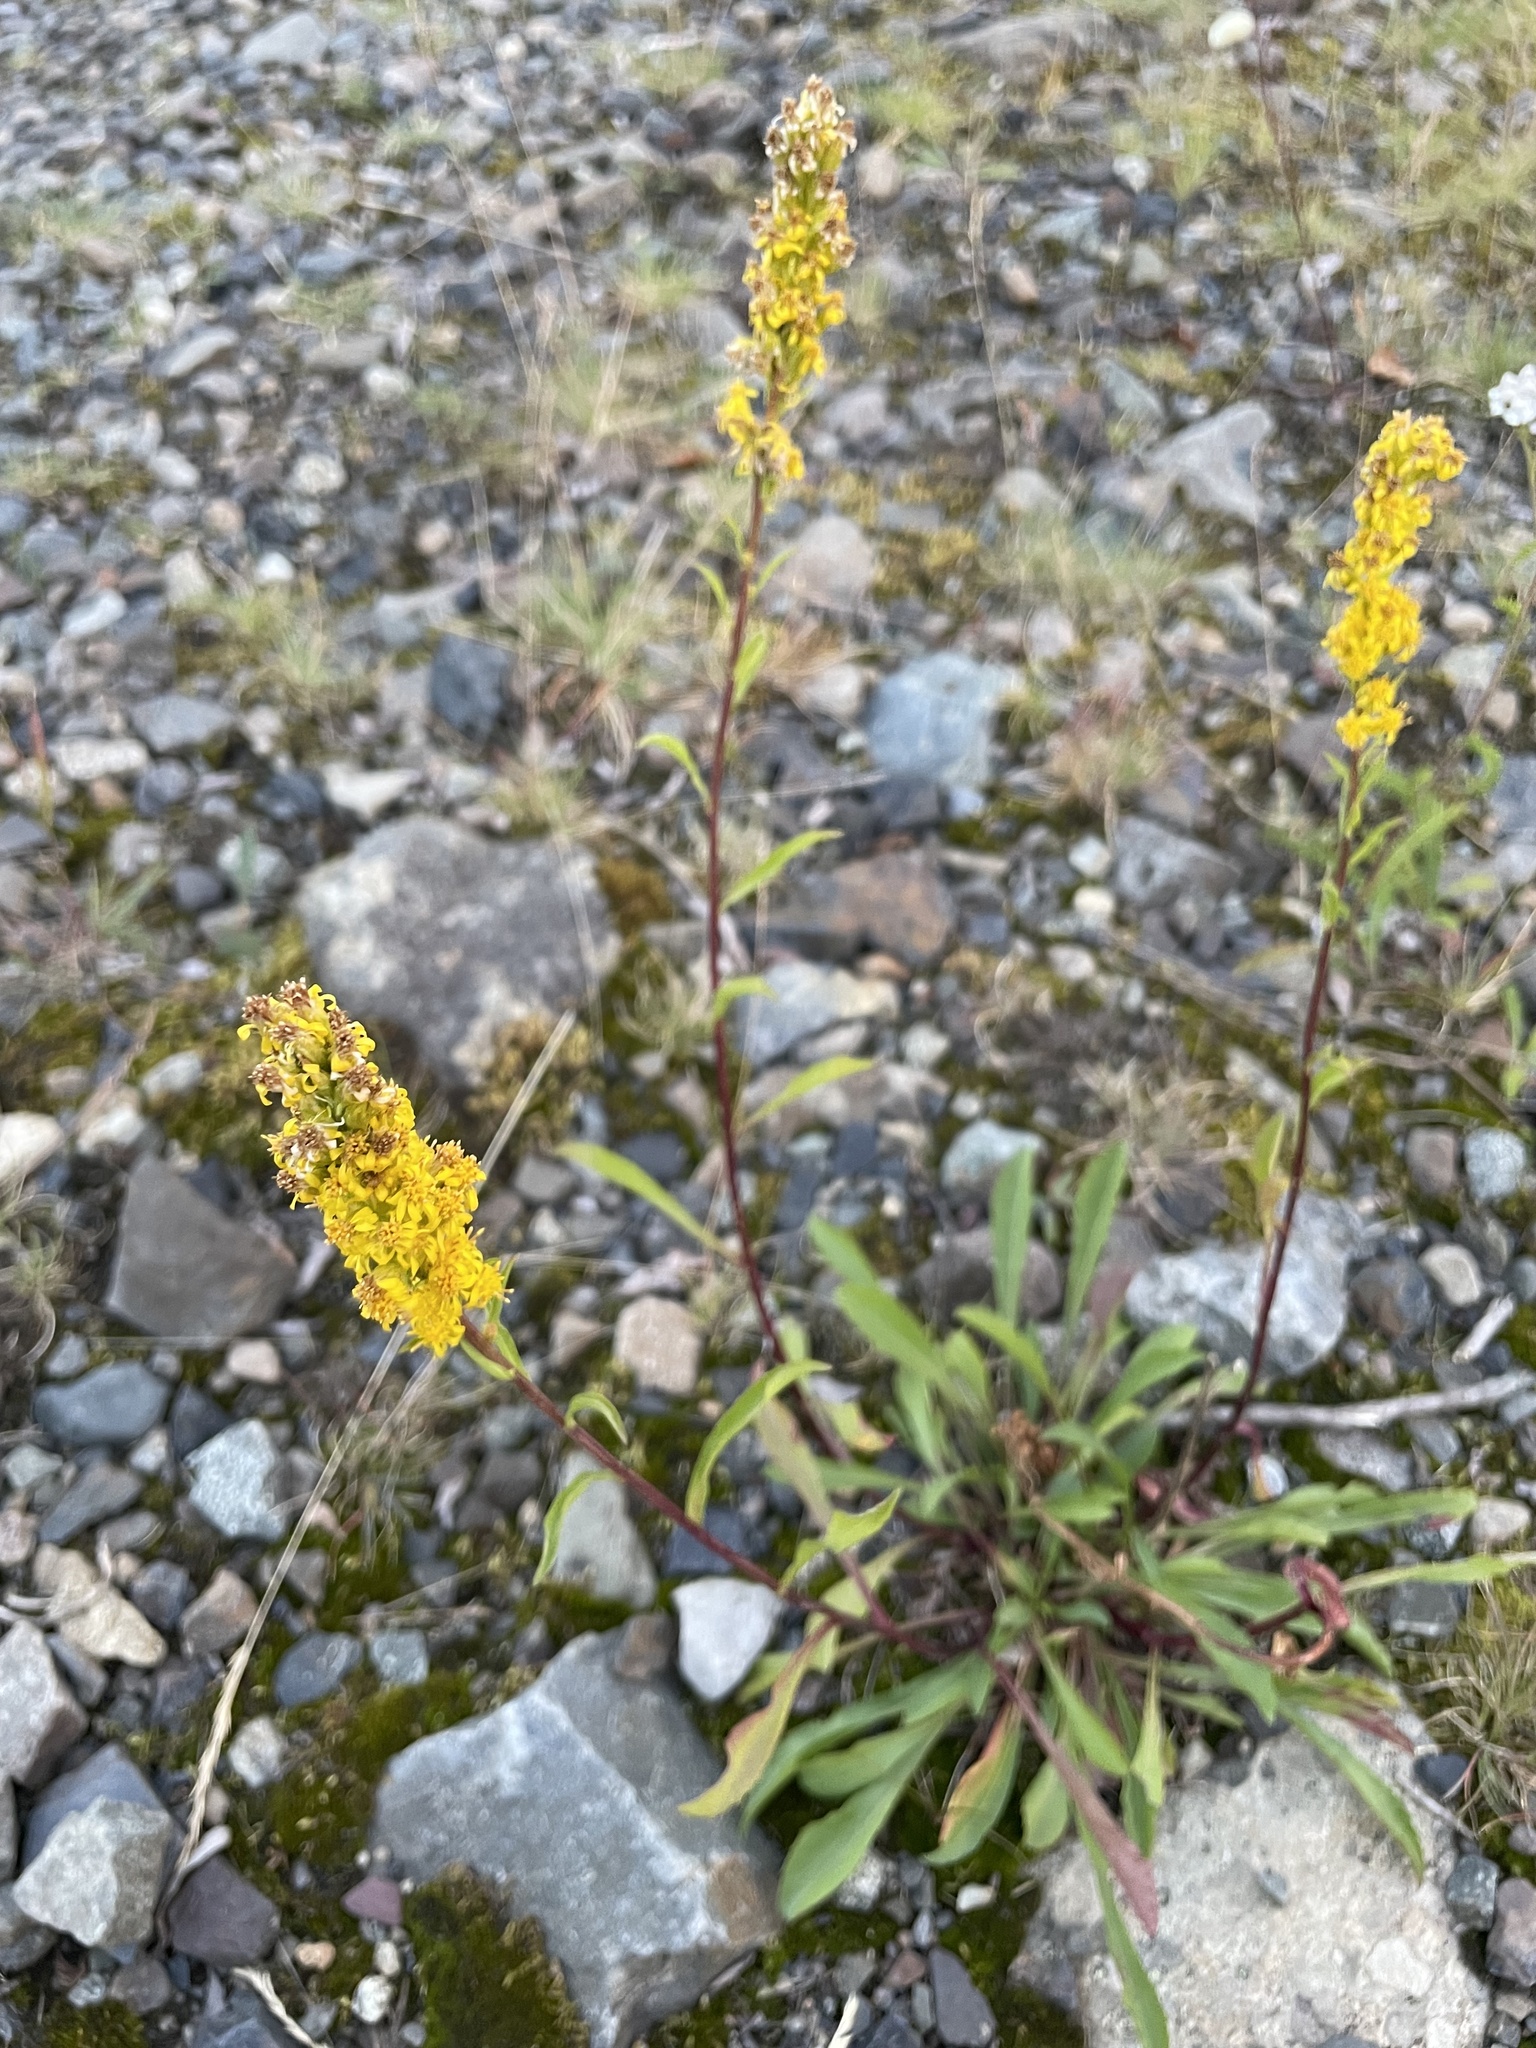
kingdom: Plantae
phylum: Tracheophyta
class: Magnoliopsida
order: Asterales
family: Asteraceae
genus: Solidago
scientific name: Solidago glutinosa
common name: Decumbent goldenrod
